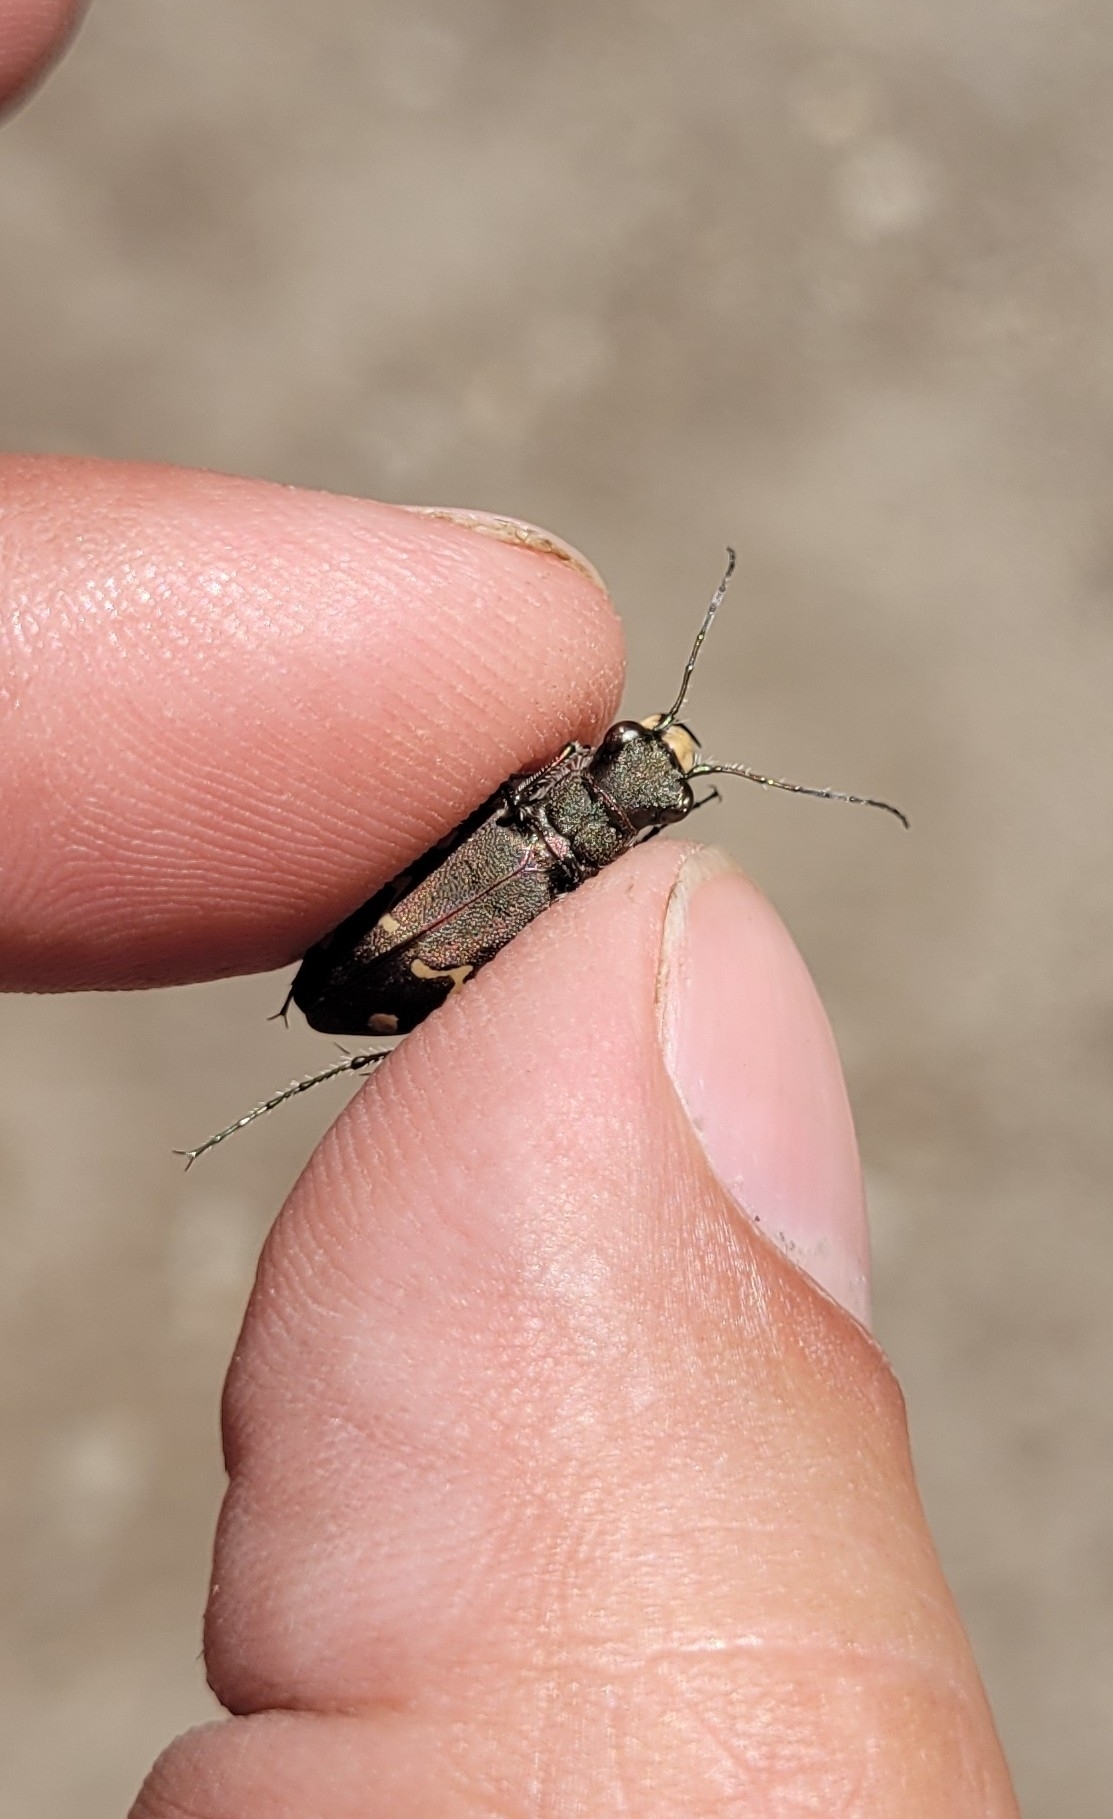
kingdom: Animalia
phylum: Arthropoda
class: Insecta
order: Coleoptera
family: Carabidae
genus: Cicindela
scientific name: Cicindela sachalinensis
